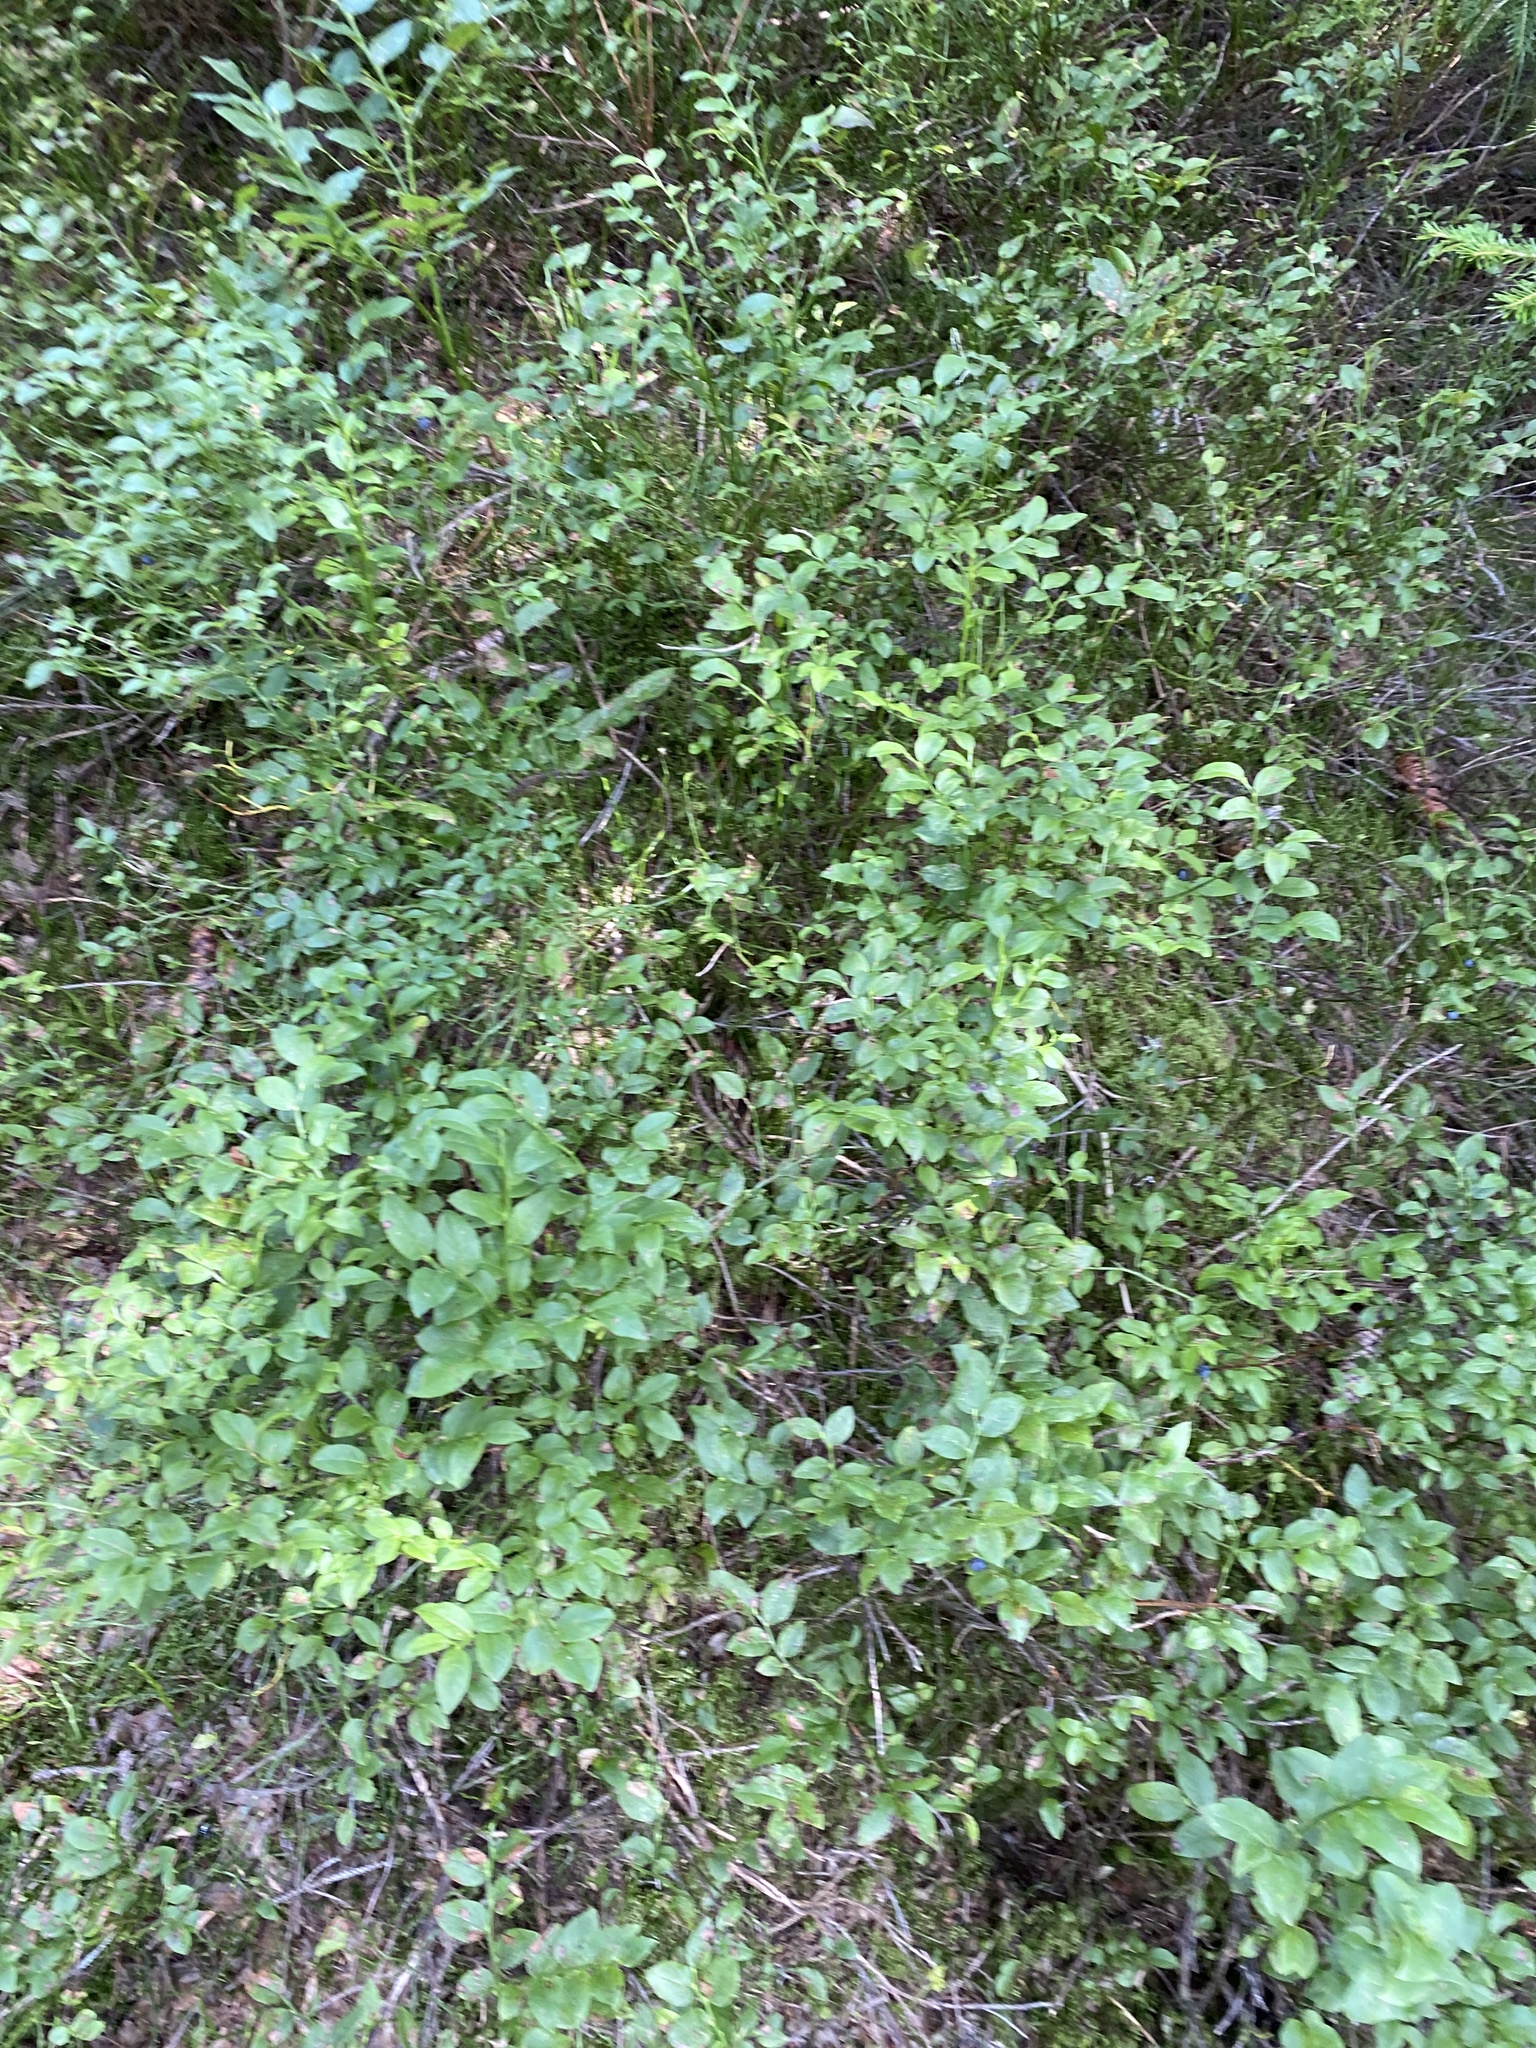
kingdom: Plantae
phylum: Tracheophyta
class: Magnoliopsida
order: Ericales
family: Ericaceae
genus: Vaccinium
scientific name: Vaccinium myrtillus
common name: Bilberry
